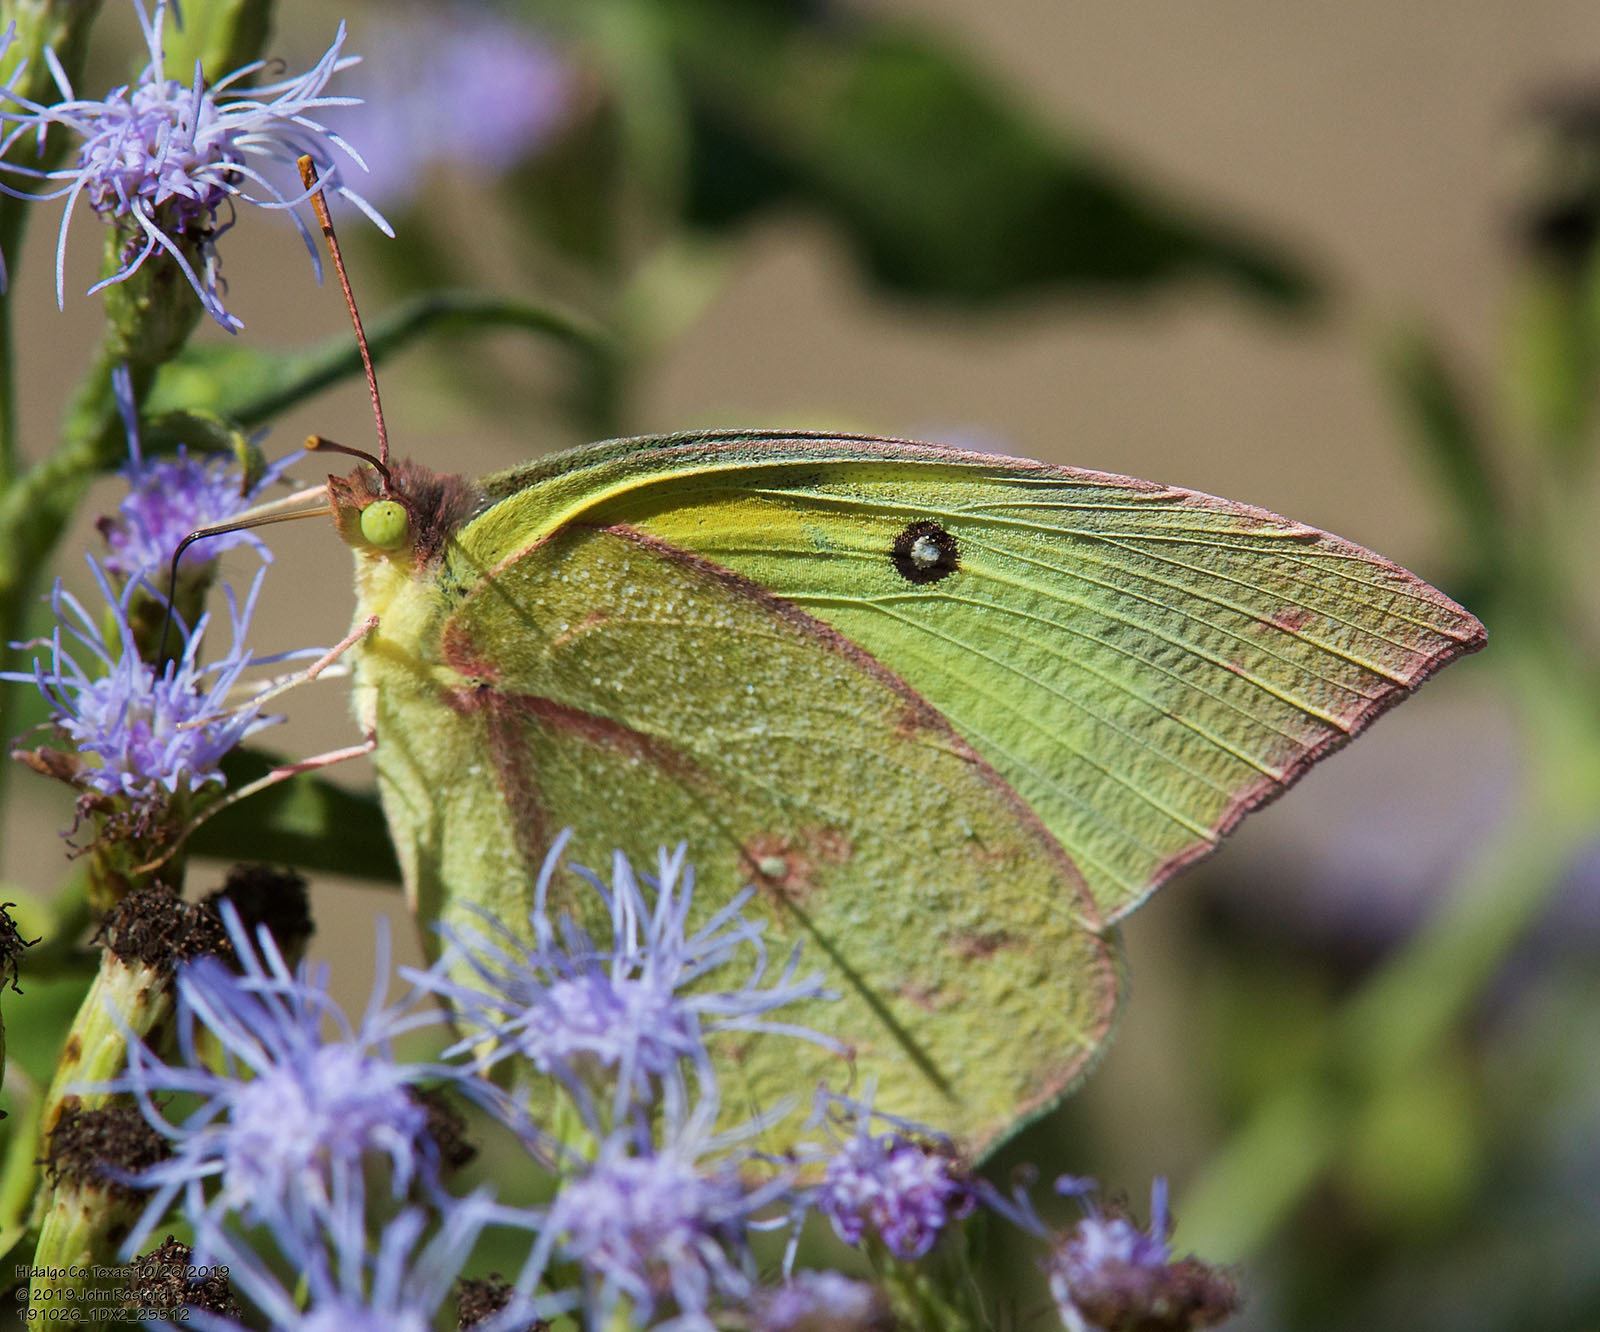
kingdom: Animalia
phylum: Arthropoda
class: Insecta
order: Lepidoptera
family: Pieridae
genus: Zerene
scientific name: Zerene cesonia
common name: Southern dogface
